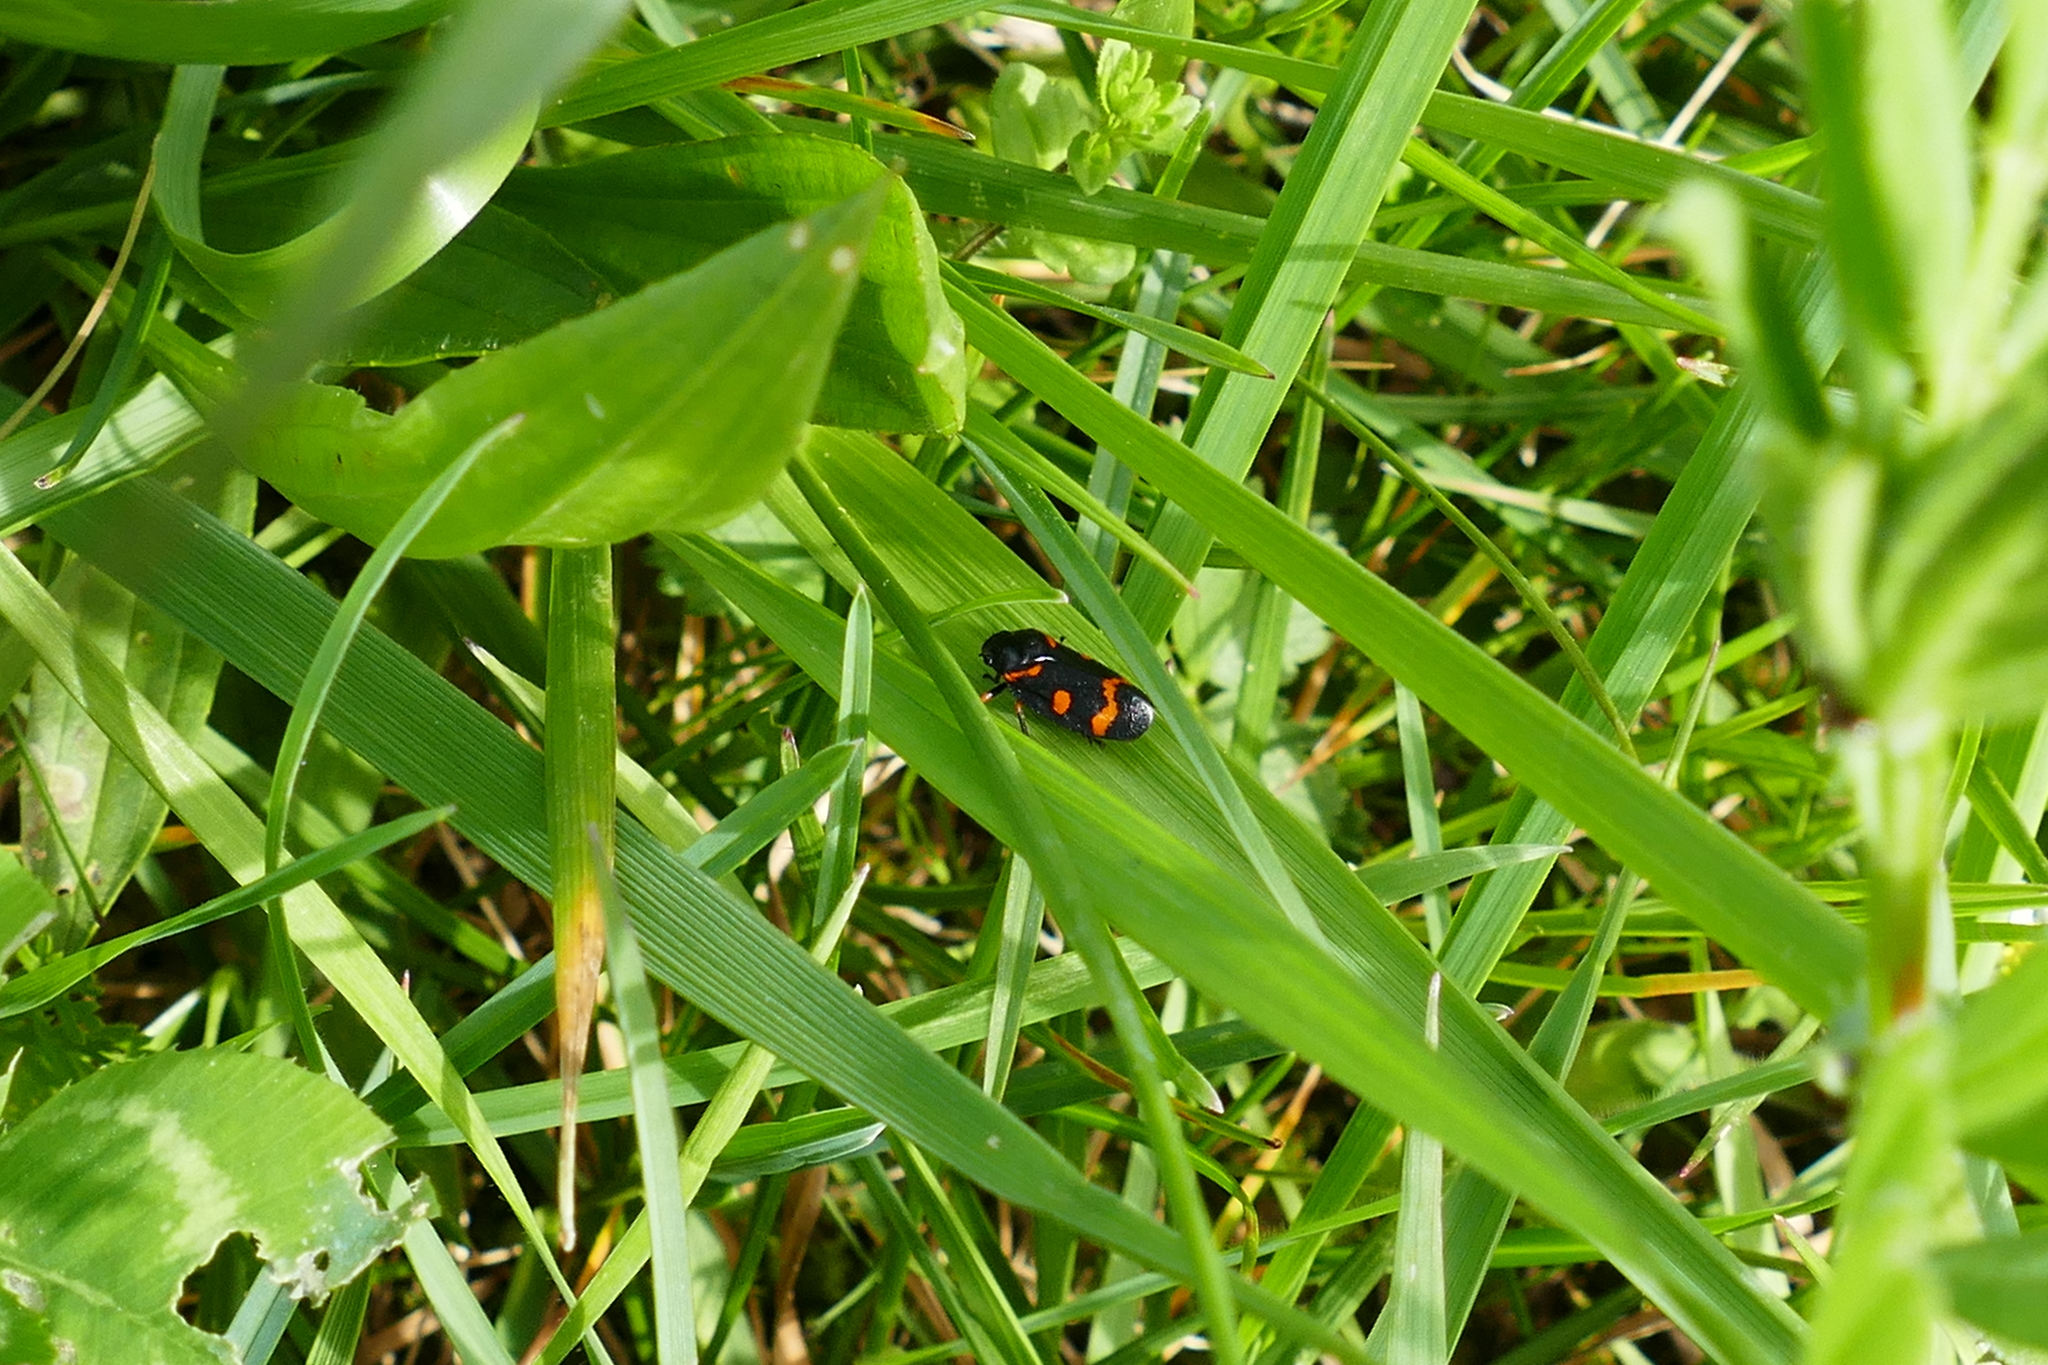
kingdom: Animalia
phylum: Arthropoda
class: Insecta
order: Hemiptera
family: Cercopidae
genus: Cercopis
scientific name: Cercopis intermedia
